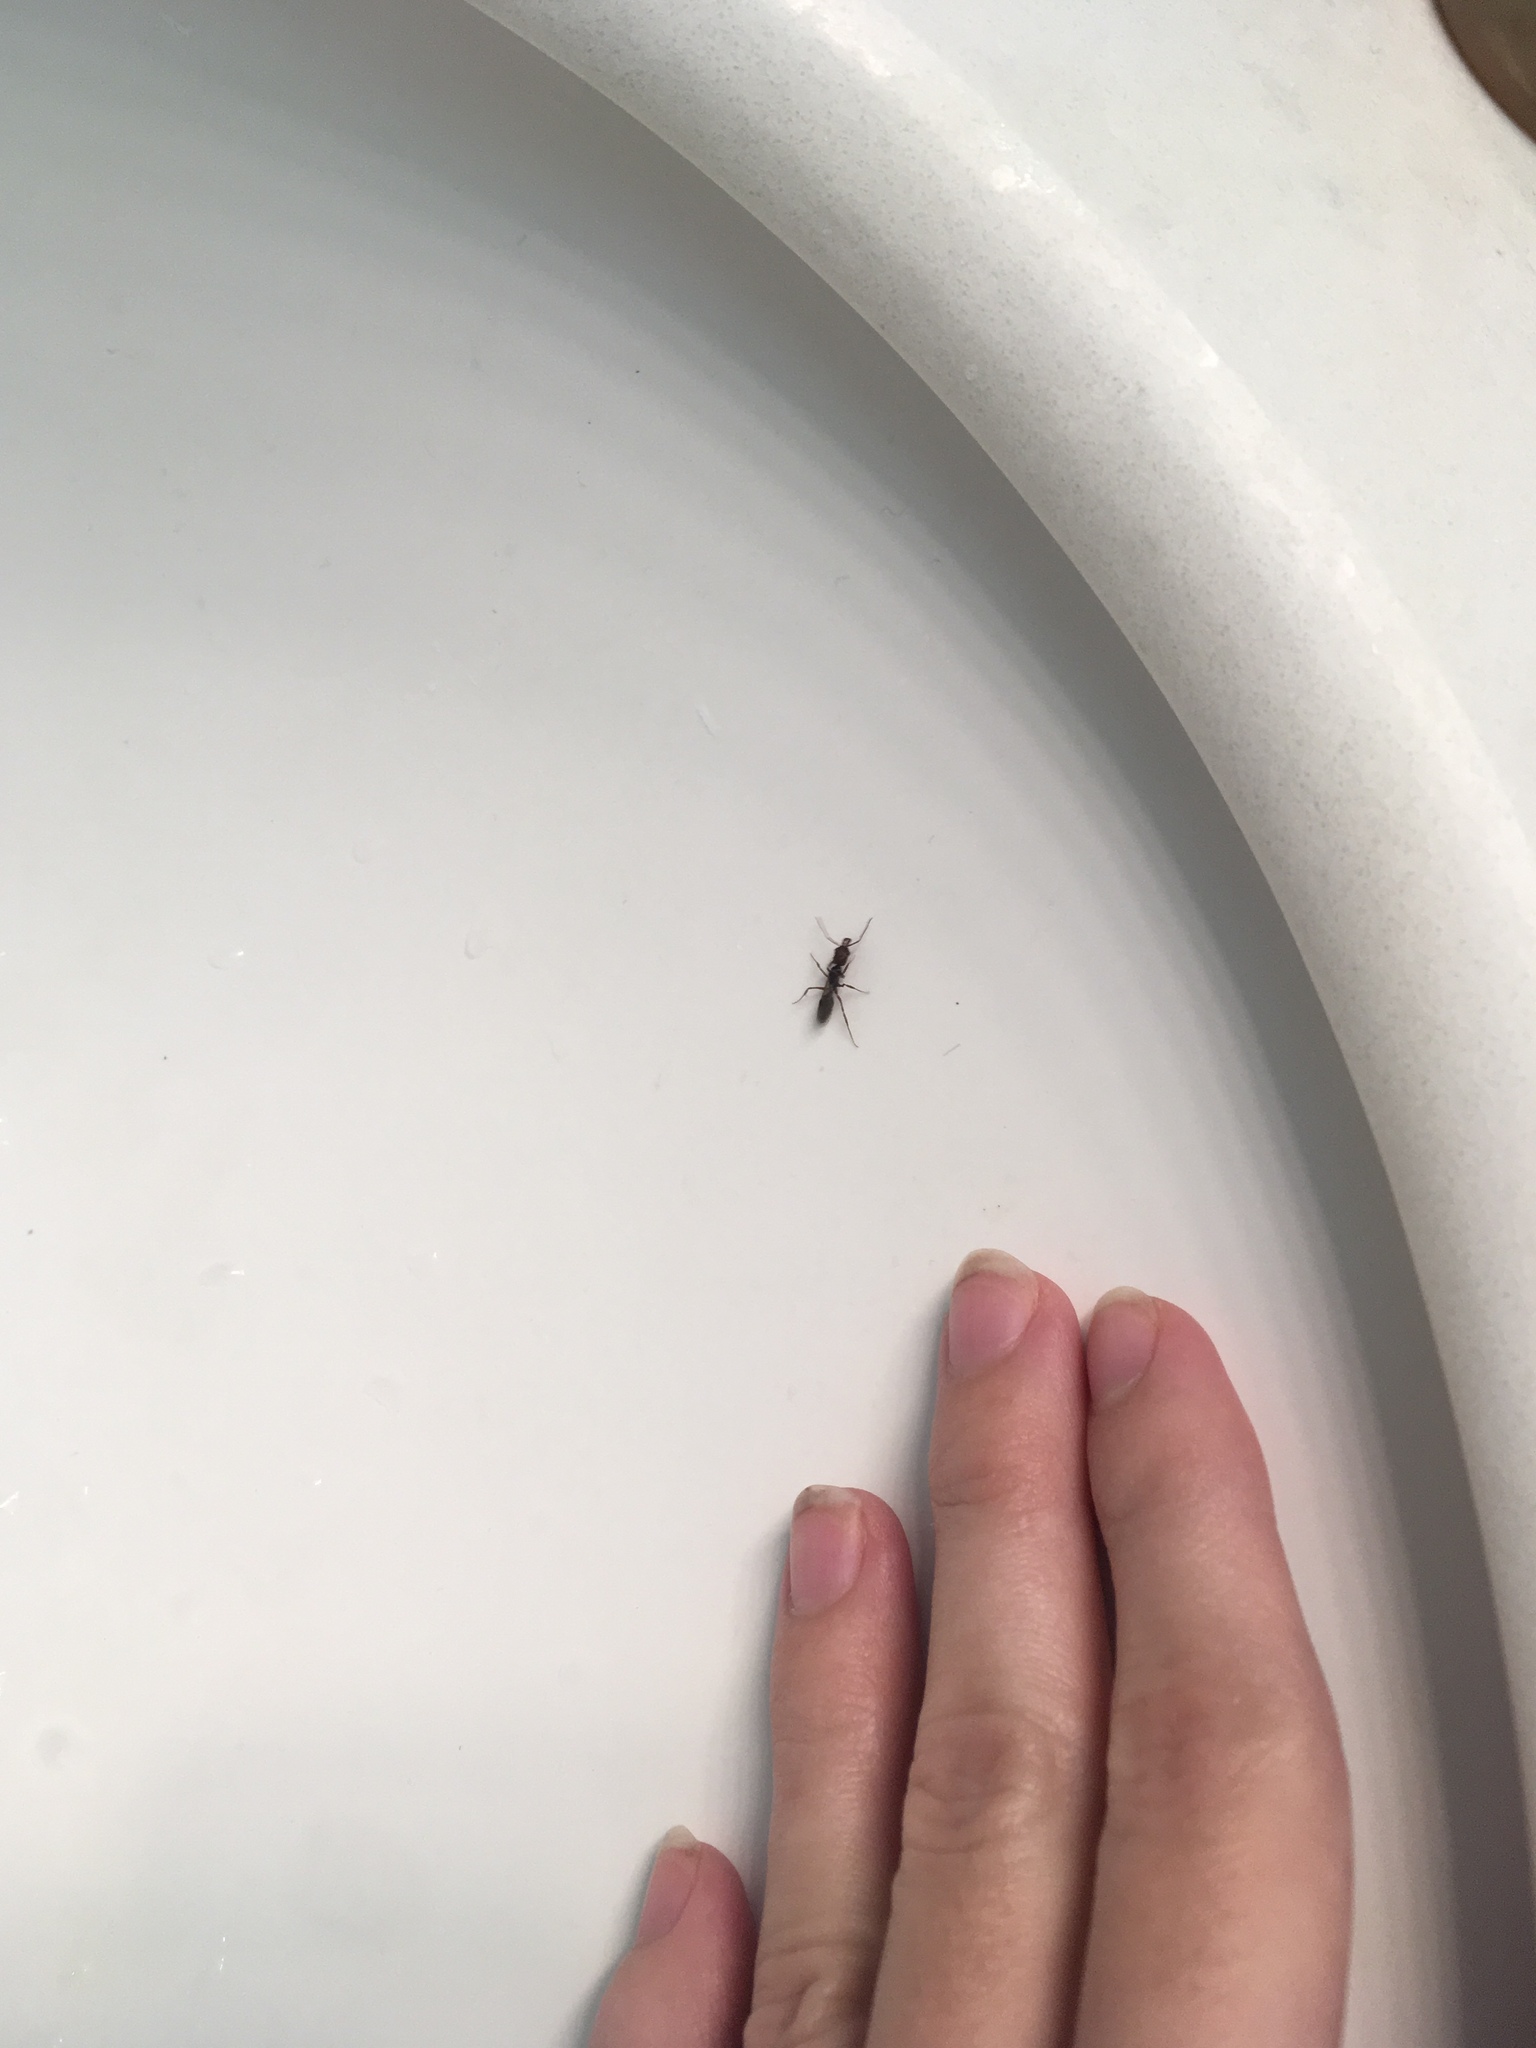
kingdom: Animalia
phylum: Arthropoda
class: Insecta
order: Hymenoptera
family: Formicidae
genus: Odontomachus
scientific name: Odontomachus ruginodis
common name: Trapjaw ant
